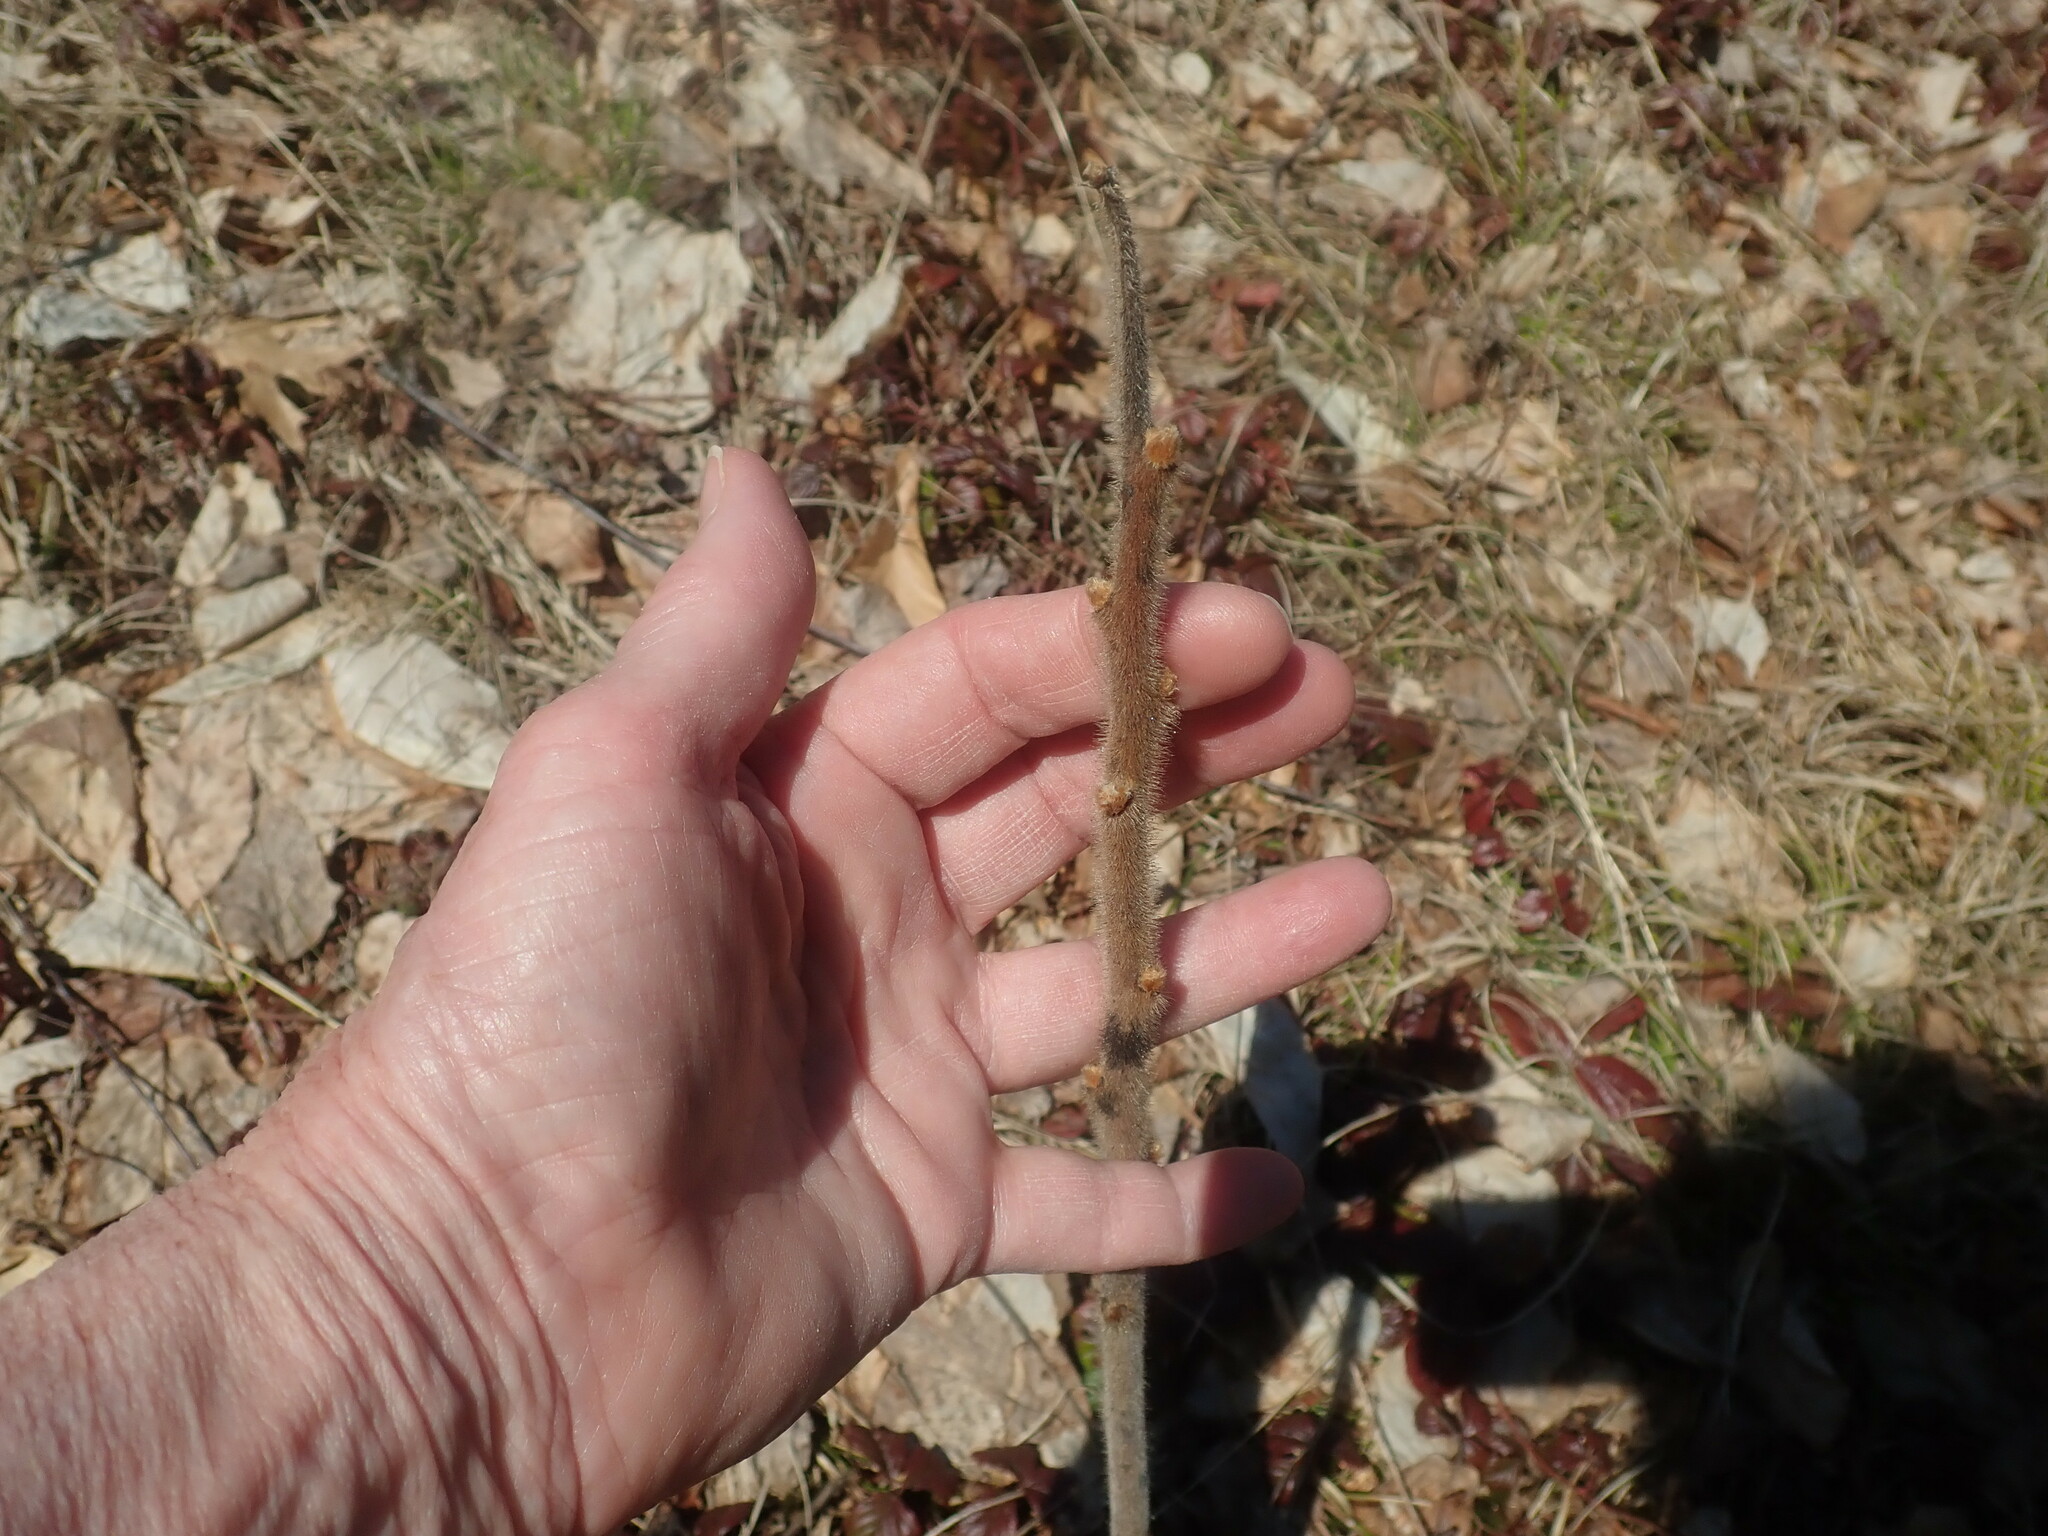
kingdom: Plantae
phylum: Tracheophyta
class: Magnoliopsida
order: Sapindales
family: Anacardiaceae
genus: Rhus
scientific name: Rhus typhina
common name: Staghorn sumac
